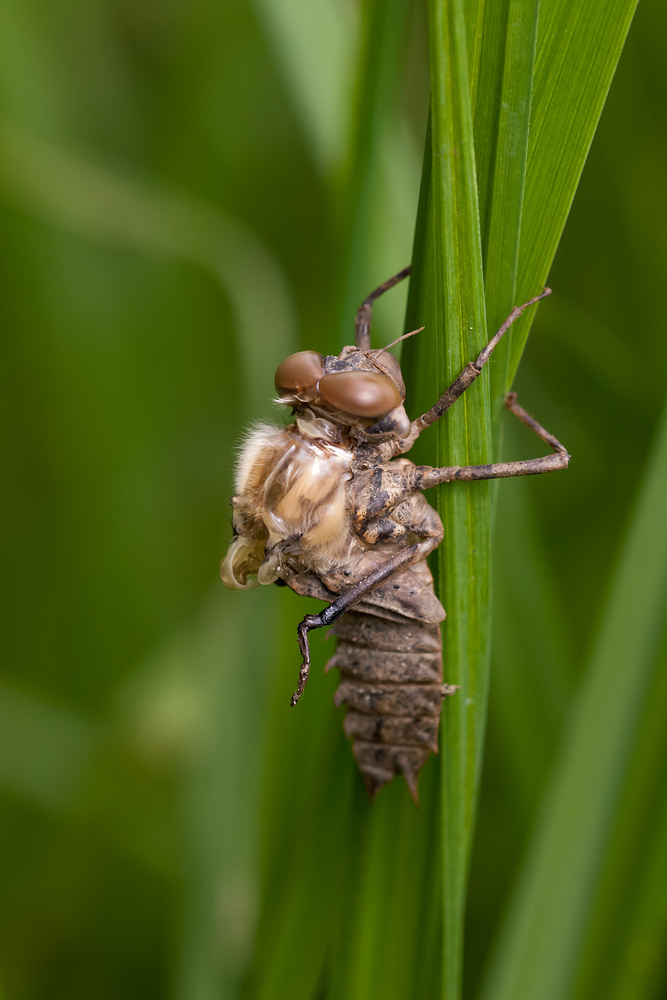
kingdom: Animalia
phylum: Arthropoda
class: Insecta
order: Odonata
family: Corduliidae
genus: Epitheca
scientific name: Epitheca bimaculata
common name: Eurasian baskettail
